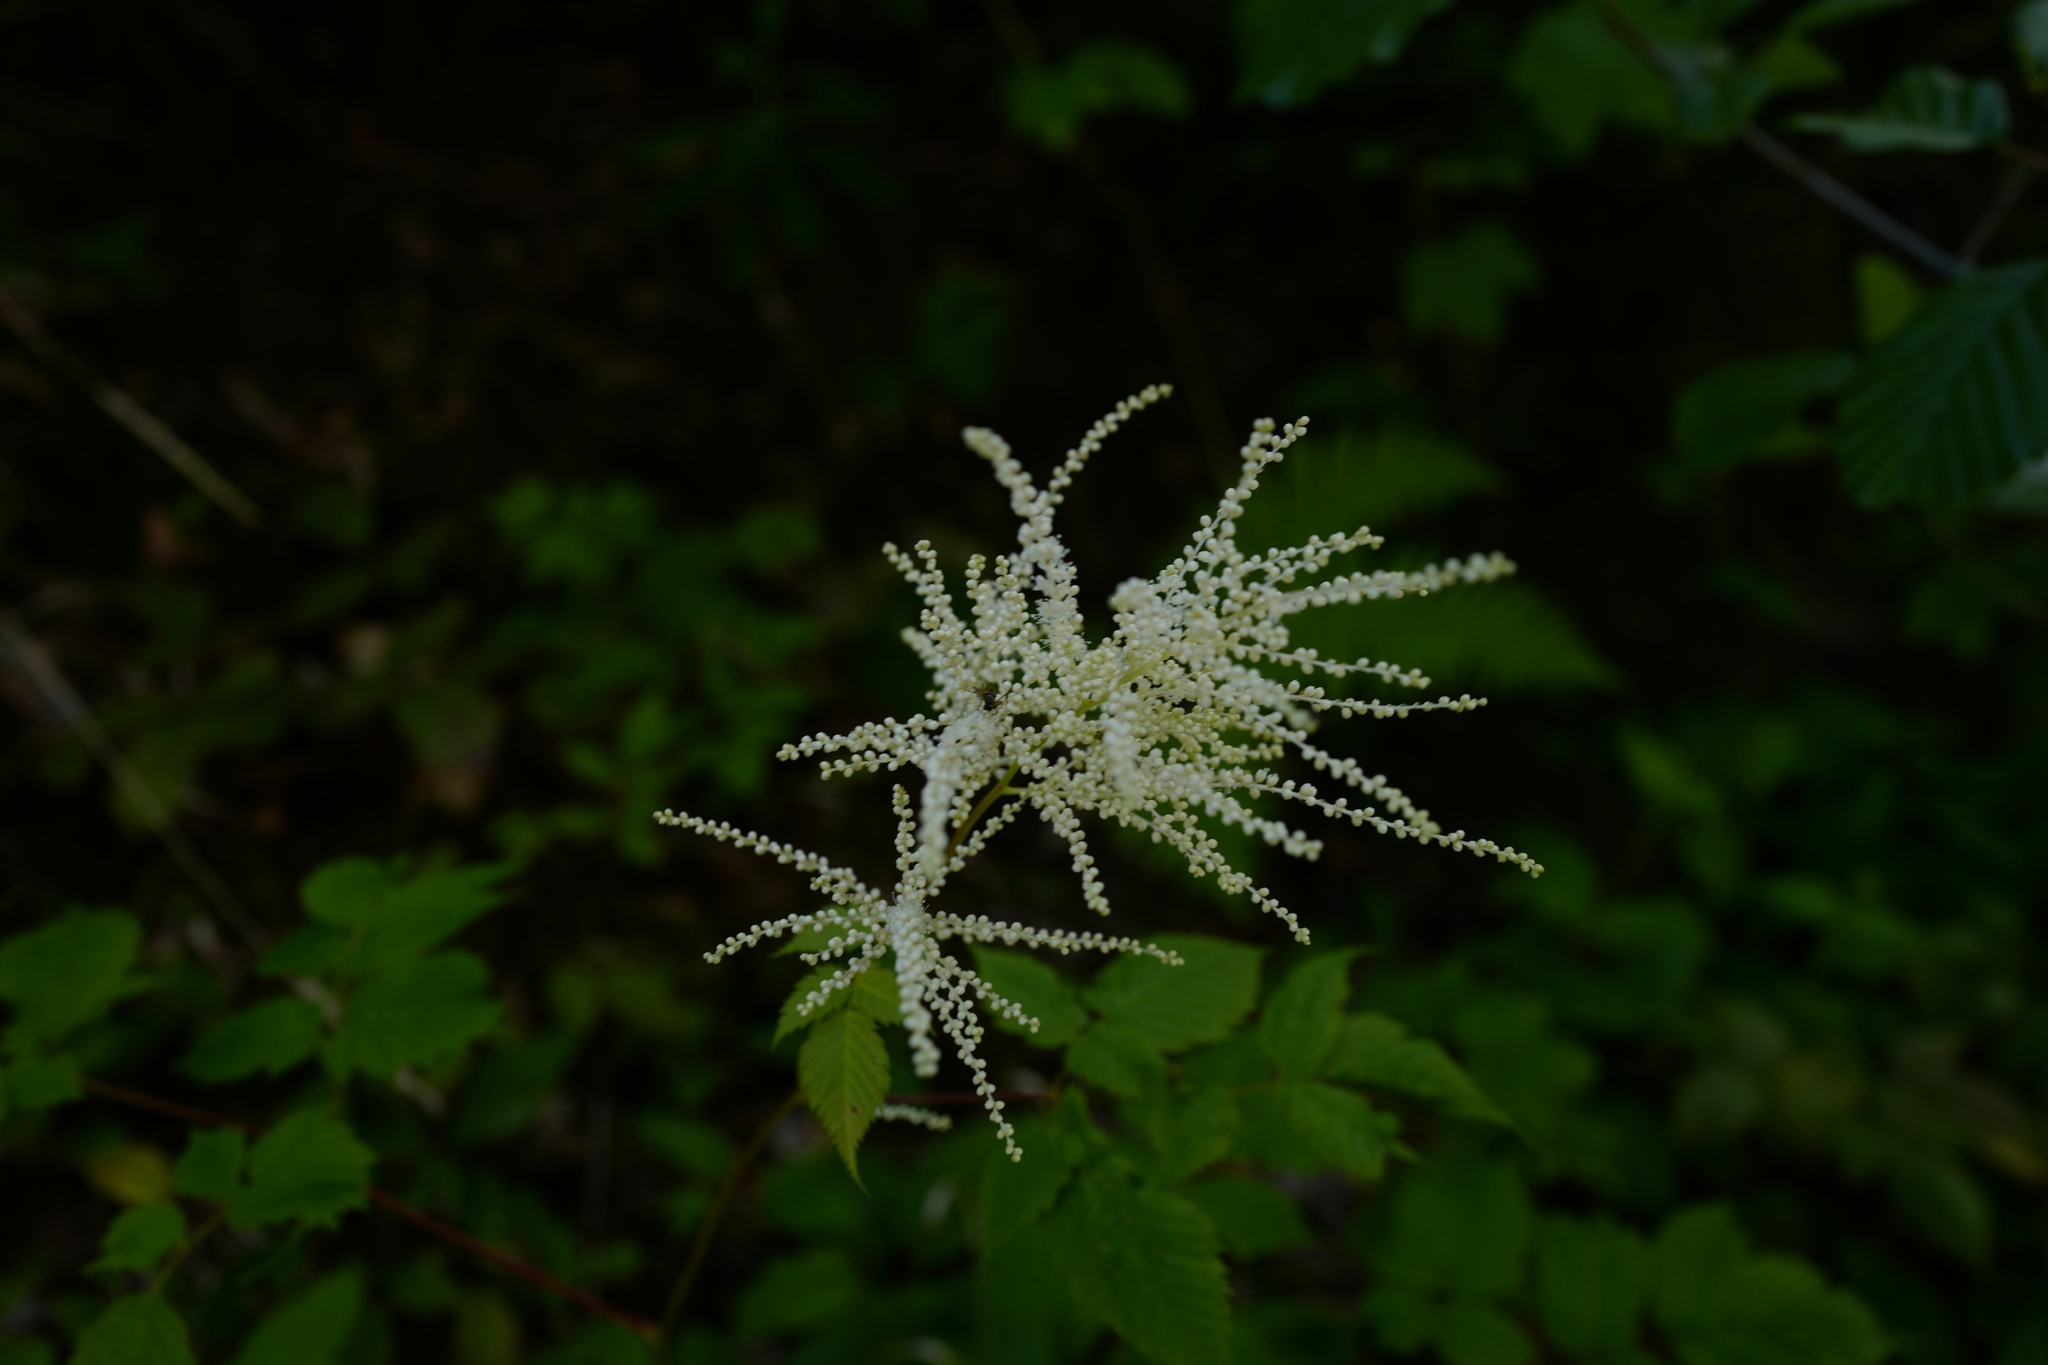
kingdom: Plantae
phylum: Tracheophyta
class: Magnoliopsida
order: Rosales
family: Rosaceae
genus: Aruncus
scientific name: Aruncus dioicus
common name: Buck's-beard
